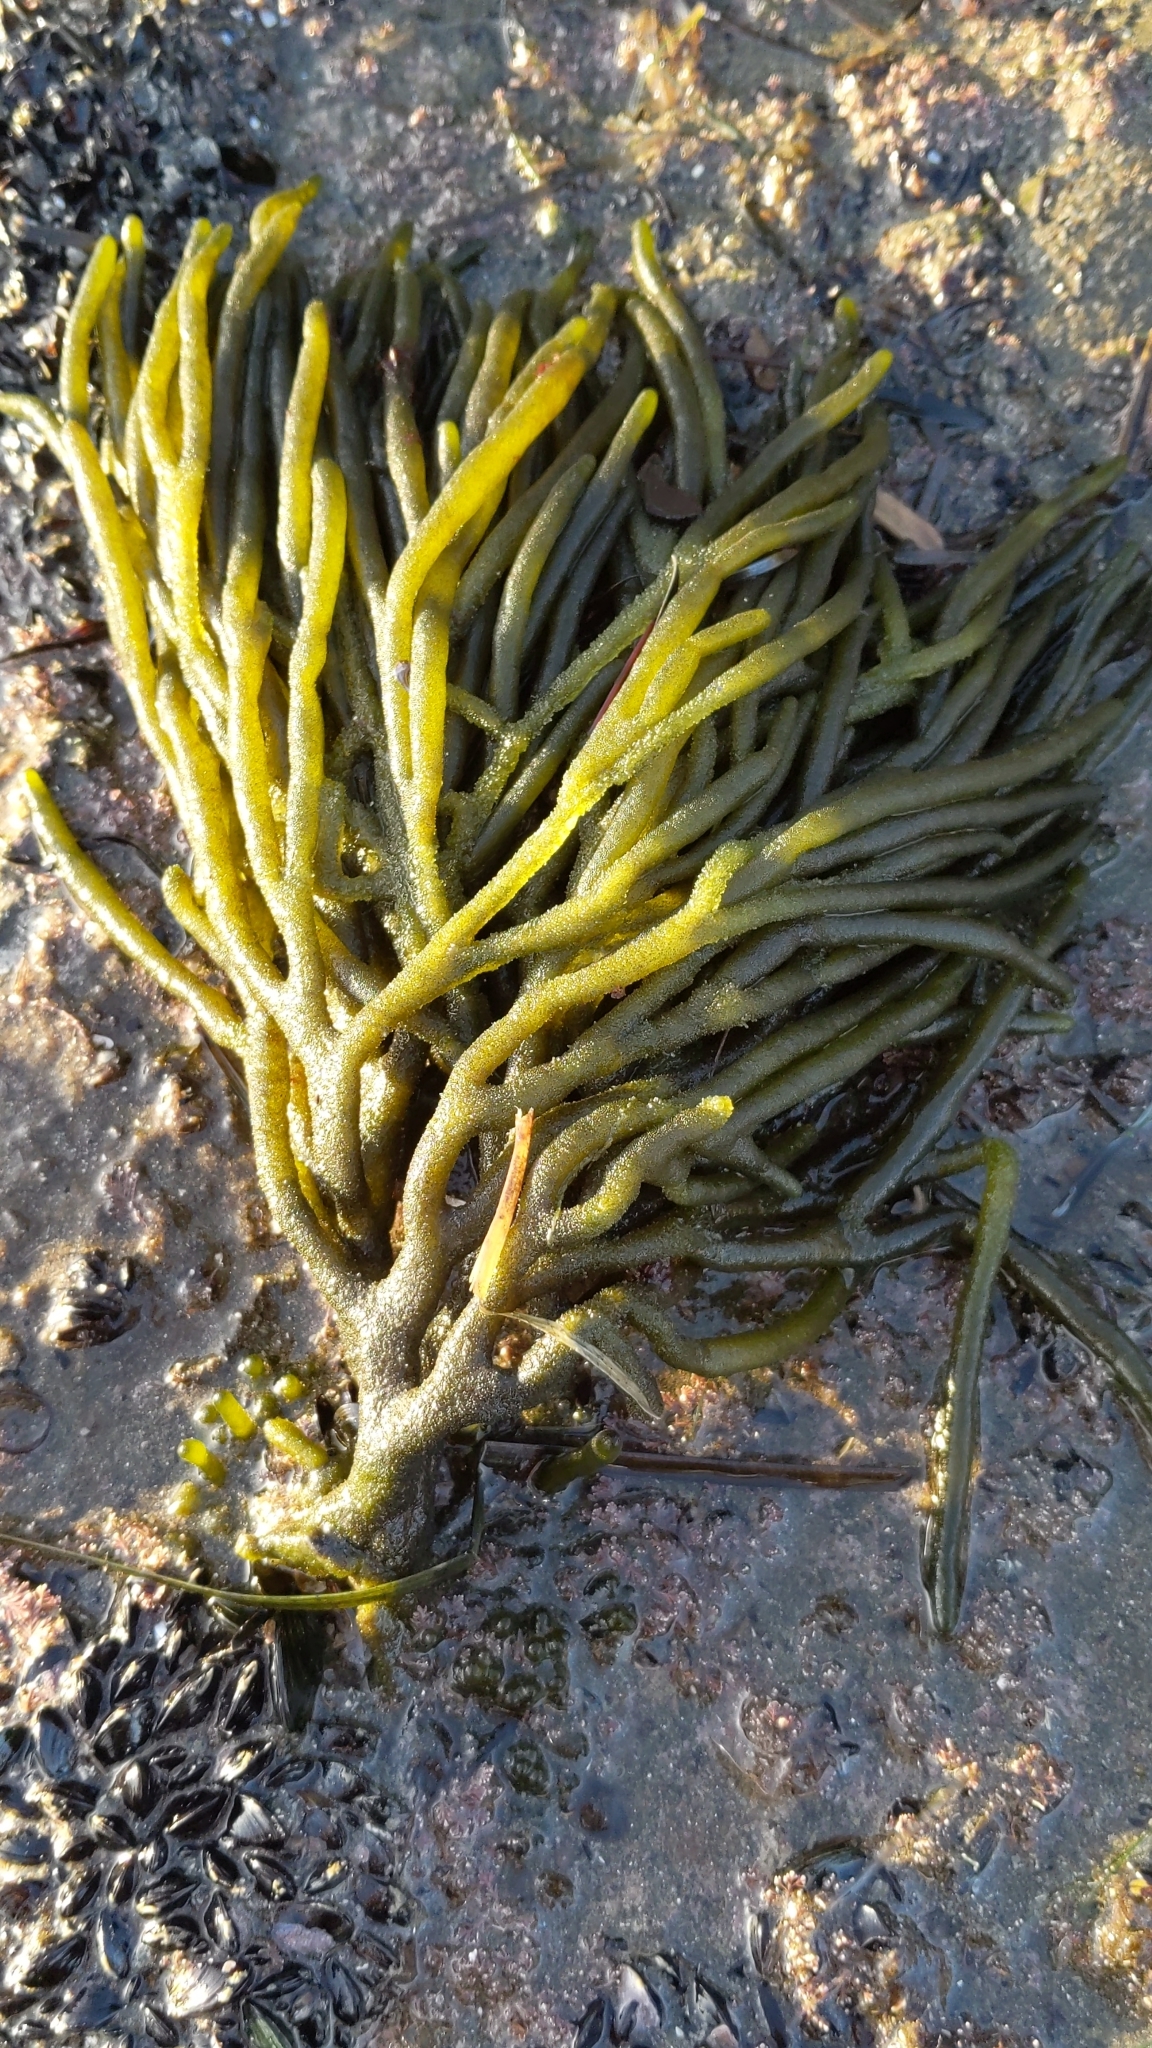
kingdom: Plantae
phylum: Chlorophyta
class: Ulvophyceae
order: Bryopsidales
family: Codiaceae
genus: Codium
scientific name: Codium fragile
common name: Dead man's fingers
